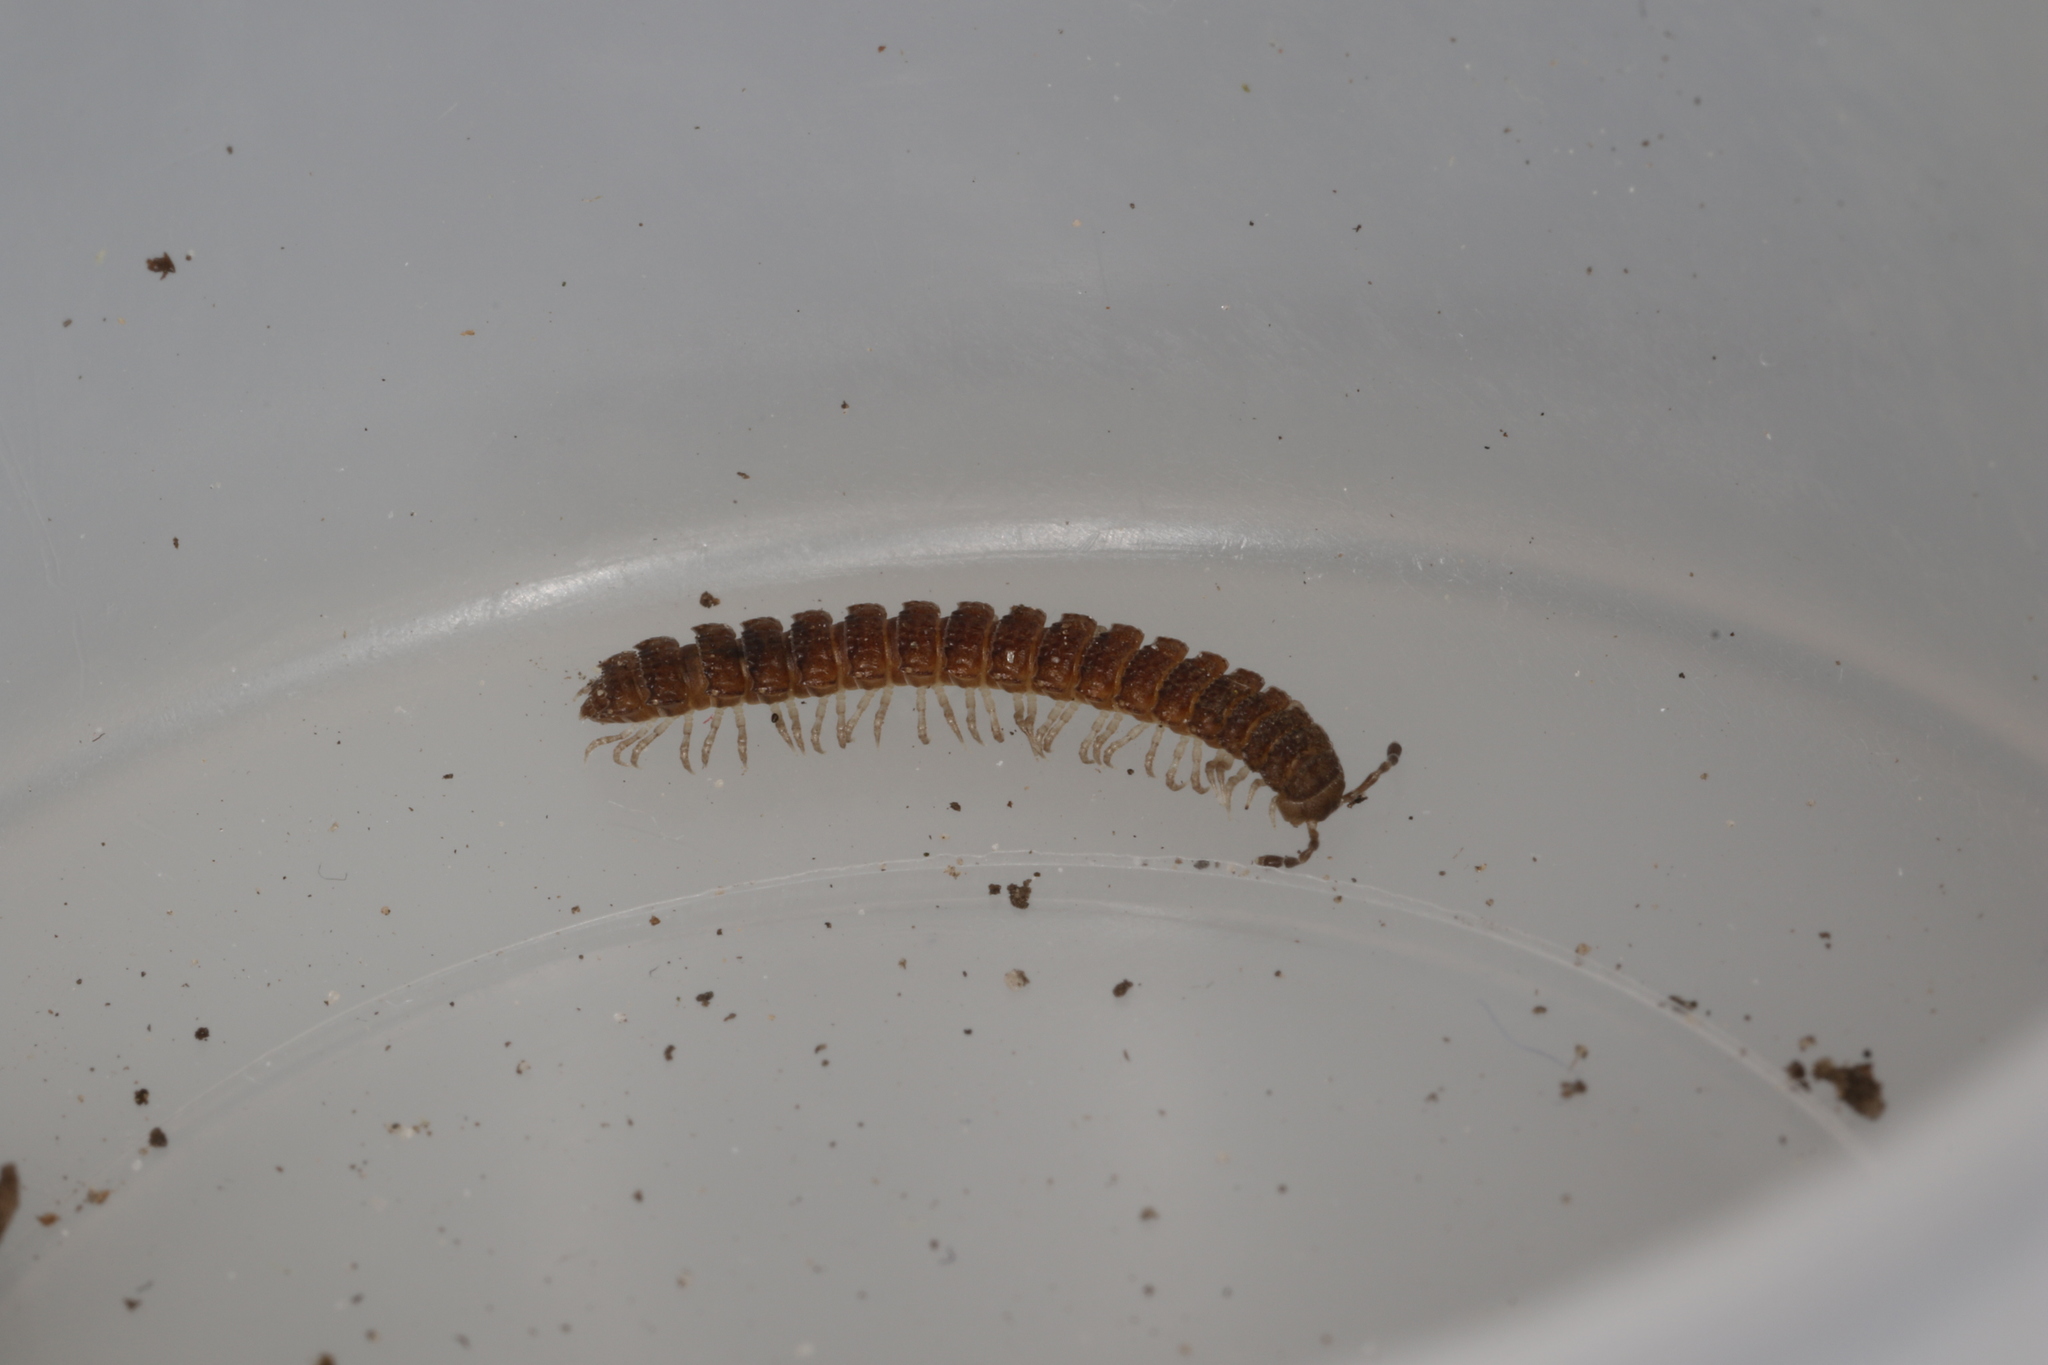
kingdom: Animalia
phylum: Arthropoda
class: Diplopoda
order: Polydesmida
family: Polydesmidae
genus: Polydesmus
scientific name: Polydesmus inconstans
